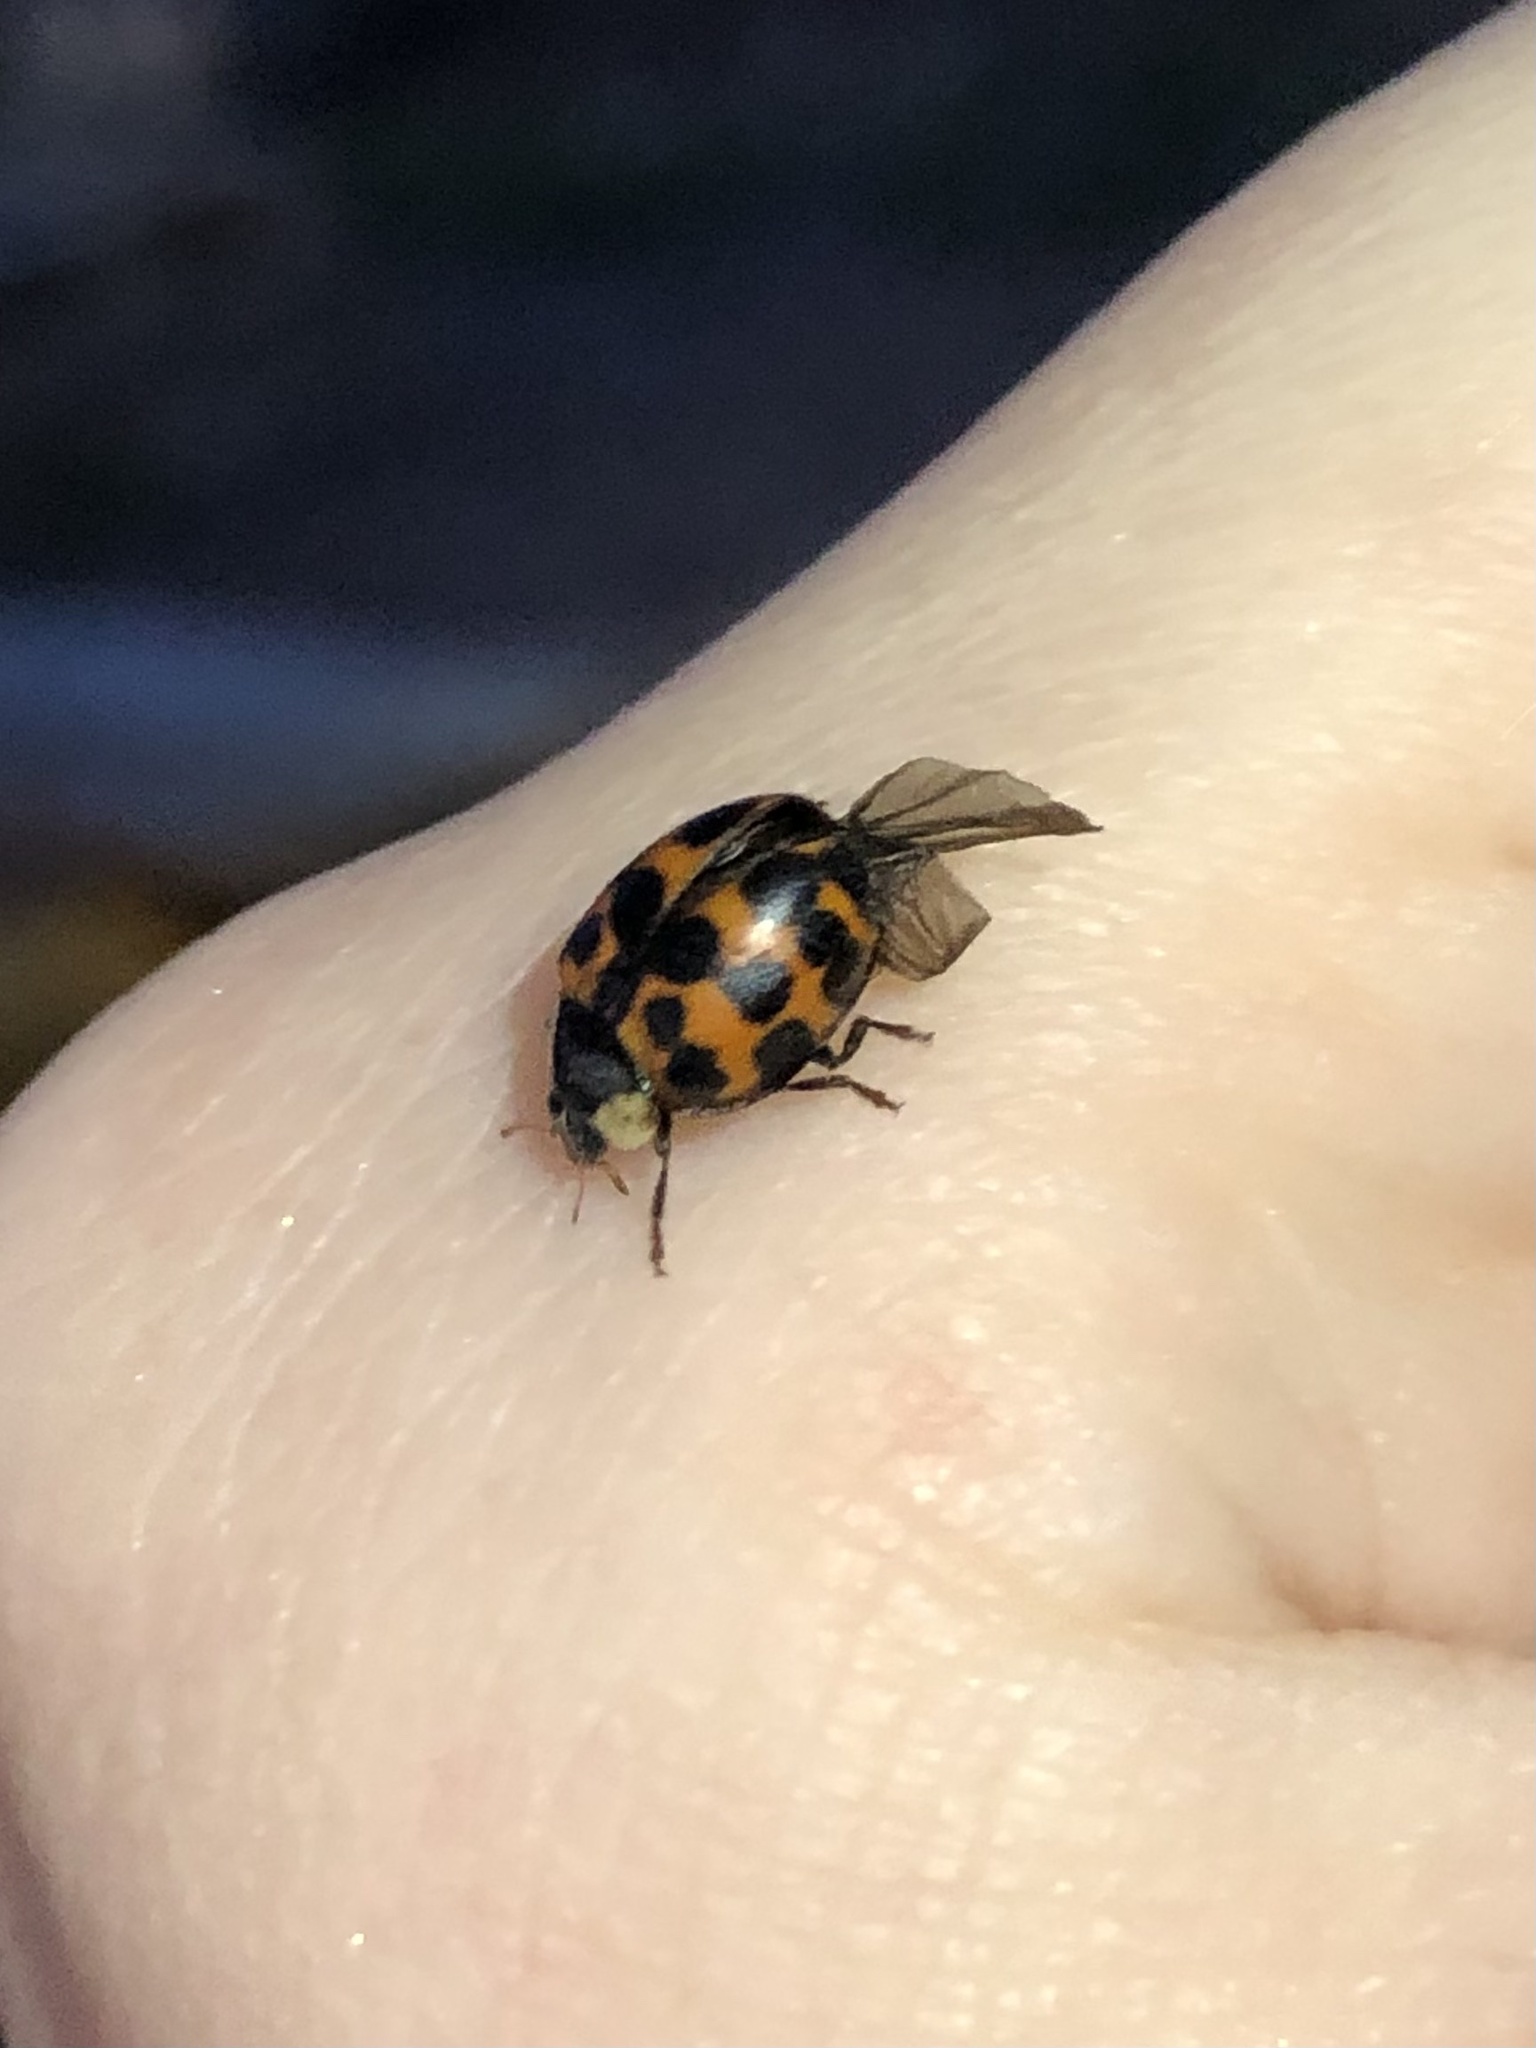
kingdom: Animalia
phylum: Arthropoda
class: Insecta
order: Coleoptera
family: Coccinellidae
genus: Harmonia
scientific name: Harmonia axyridis
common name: Harlequin ladybird
